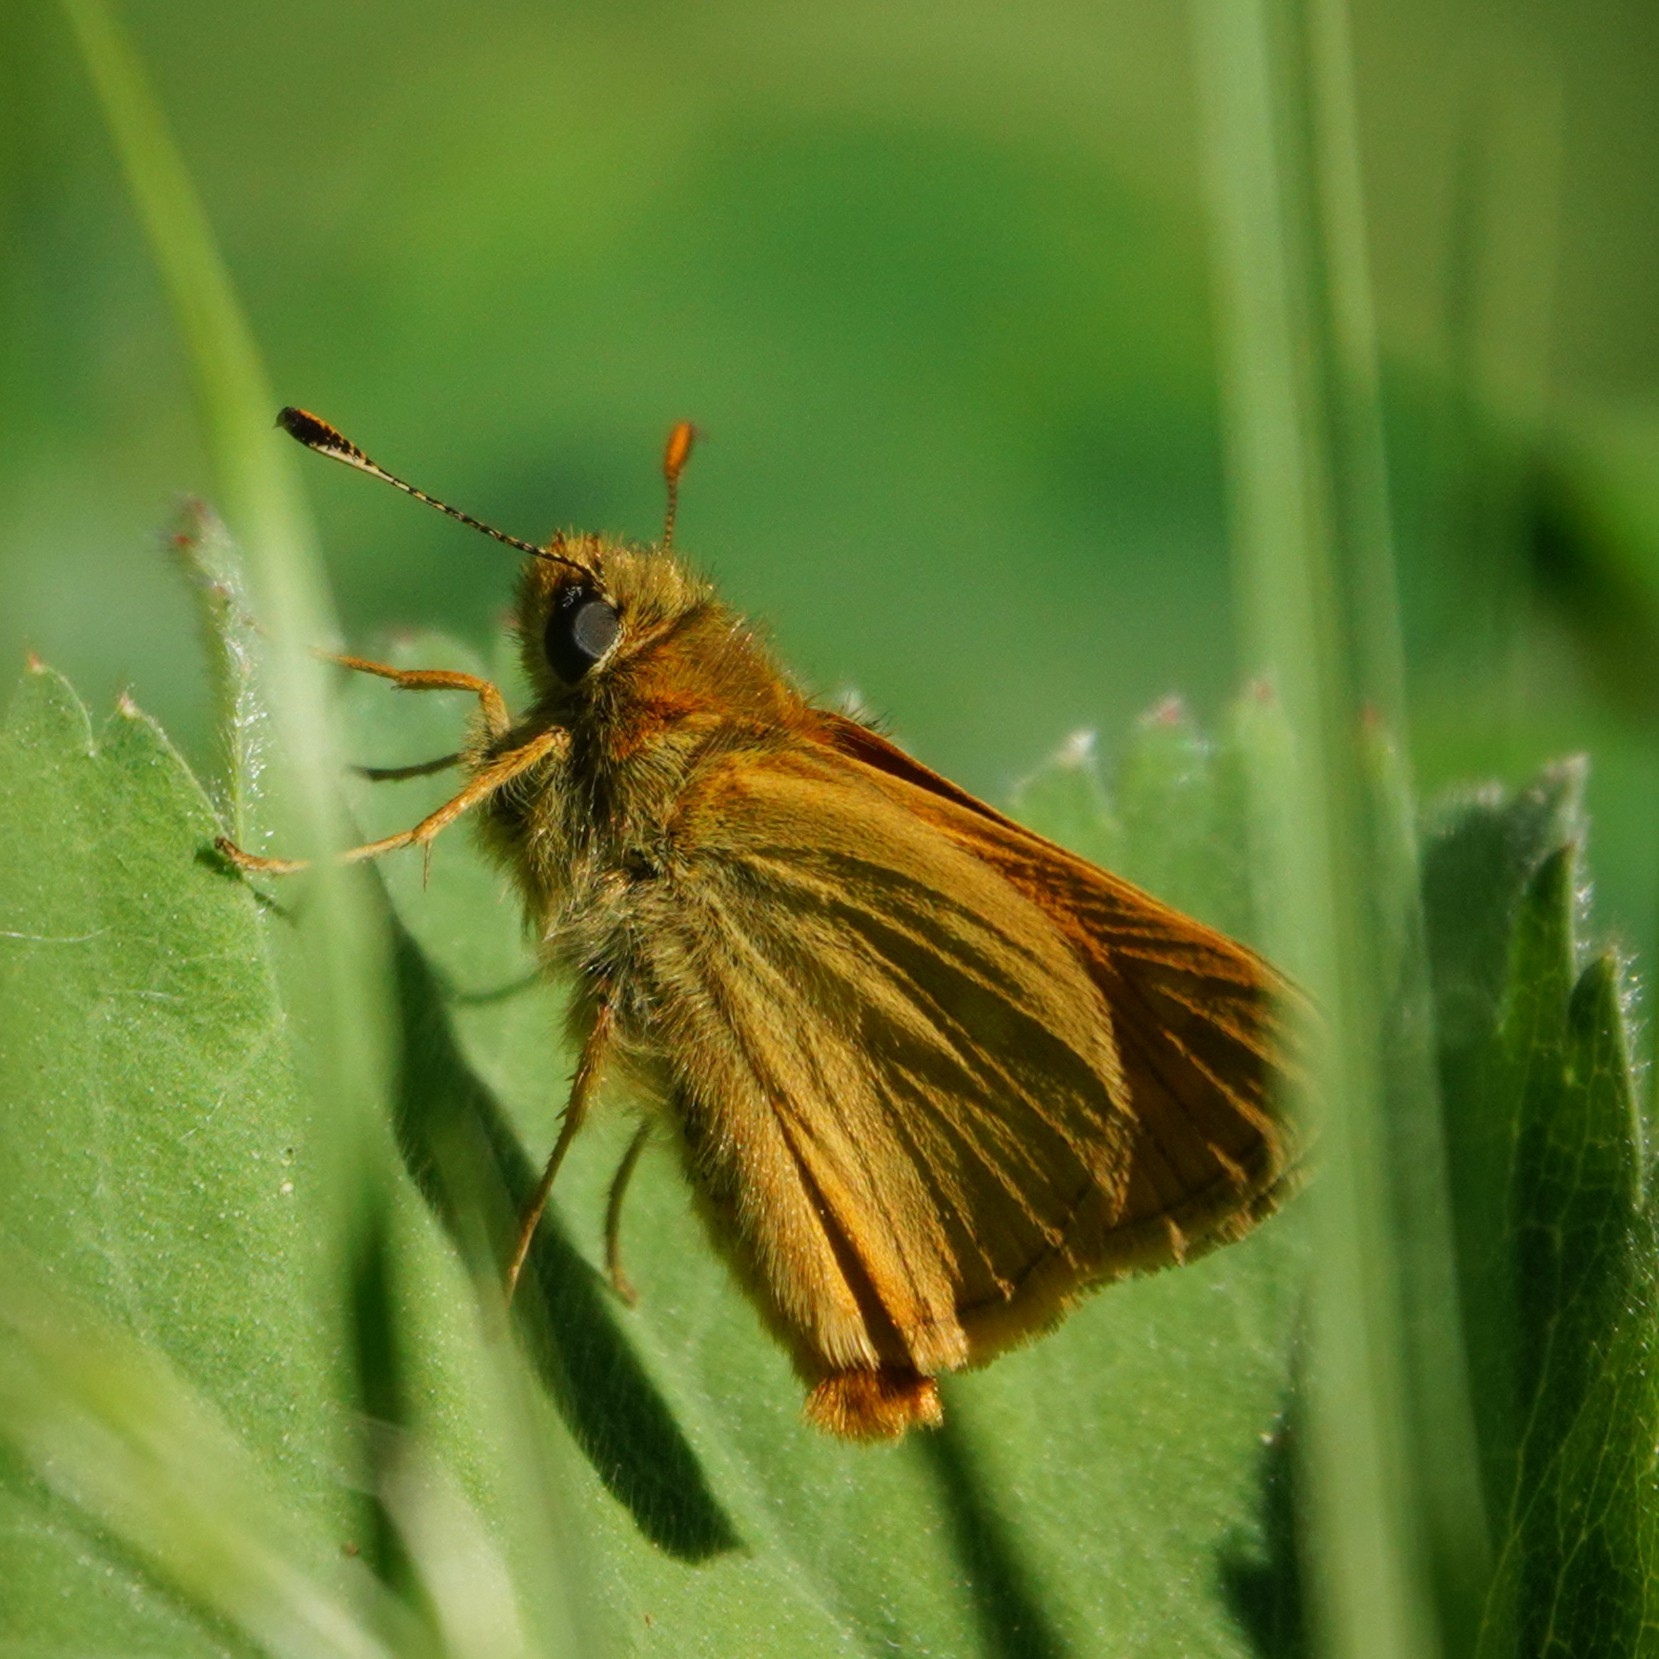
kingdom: Animalia
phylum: Arthropoda
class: Insecta
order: Lepidoptera
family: Hesperiidae
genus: Ochlodes
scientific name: Ochlodes venata
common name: Large skipper
